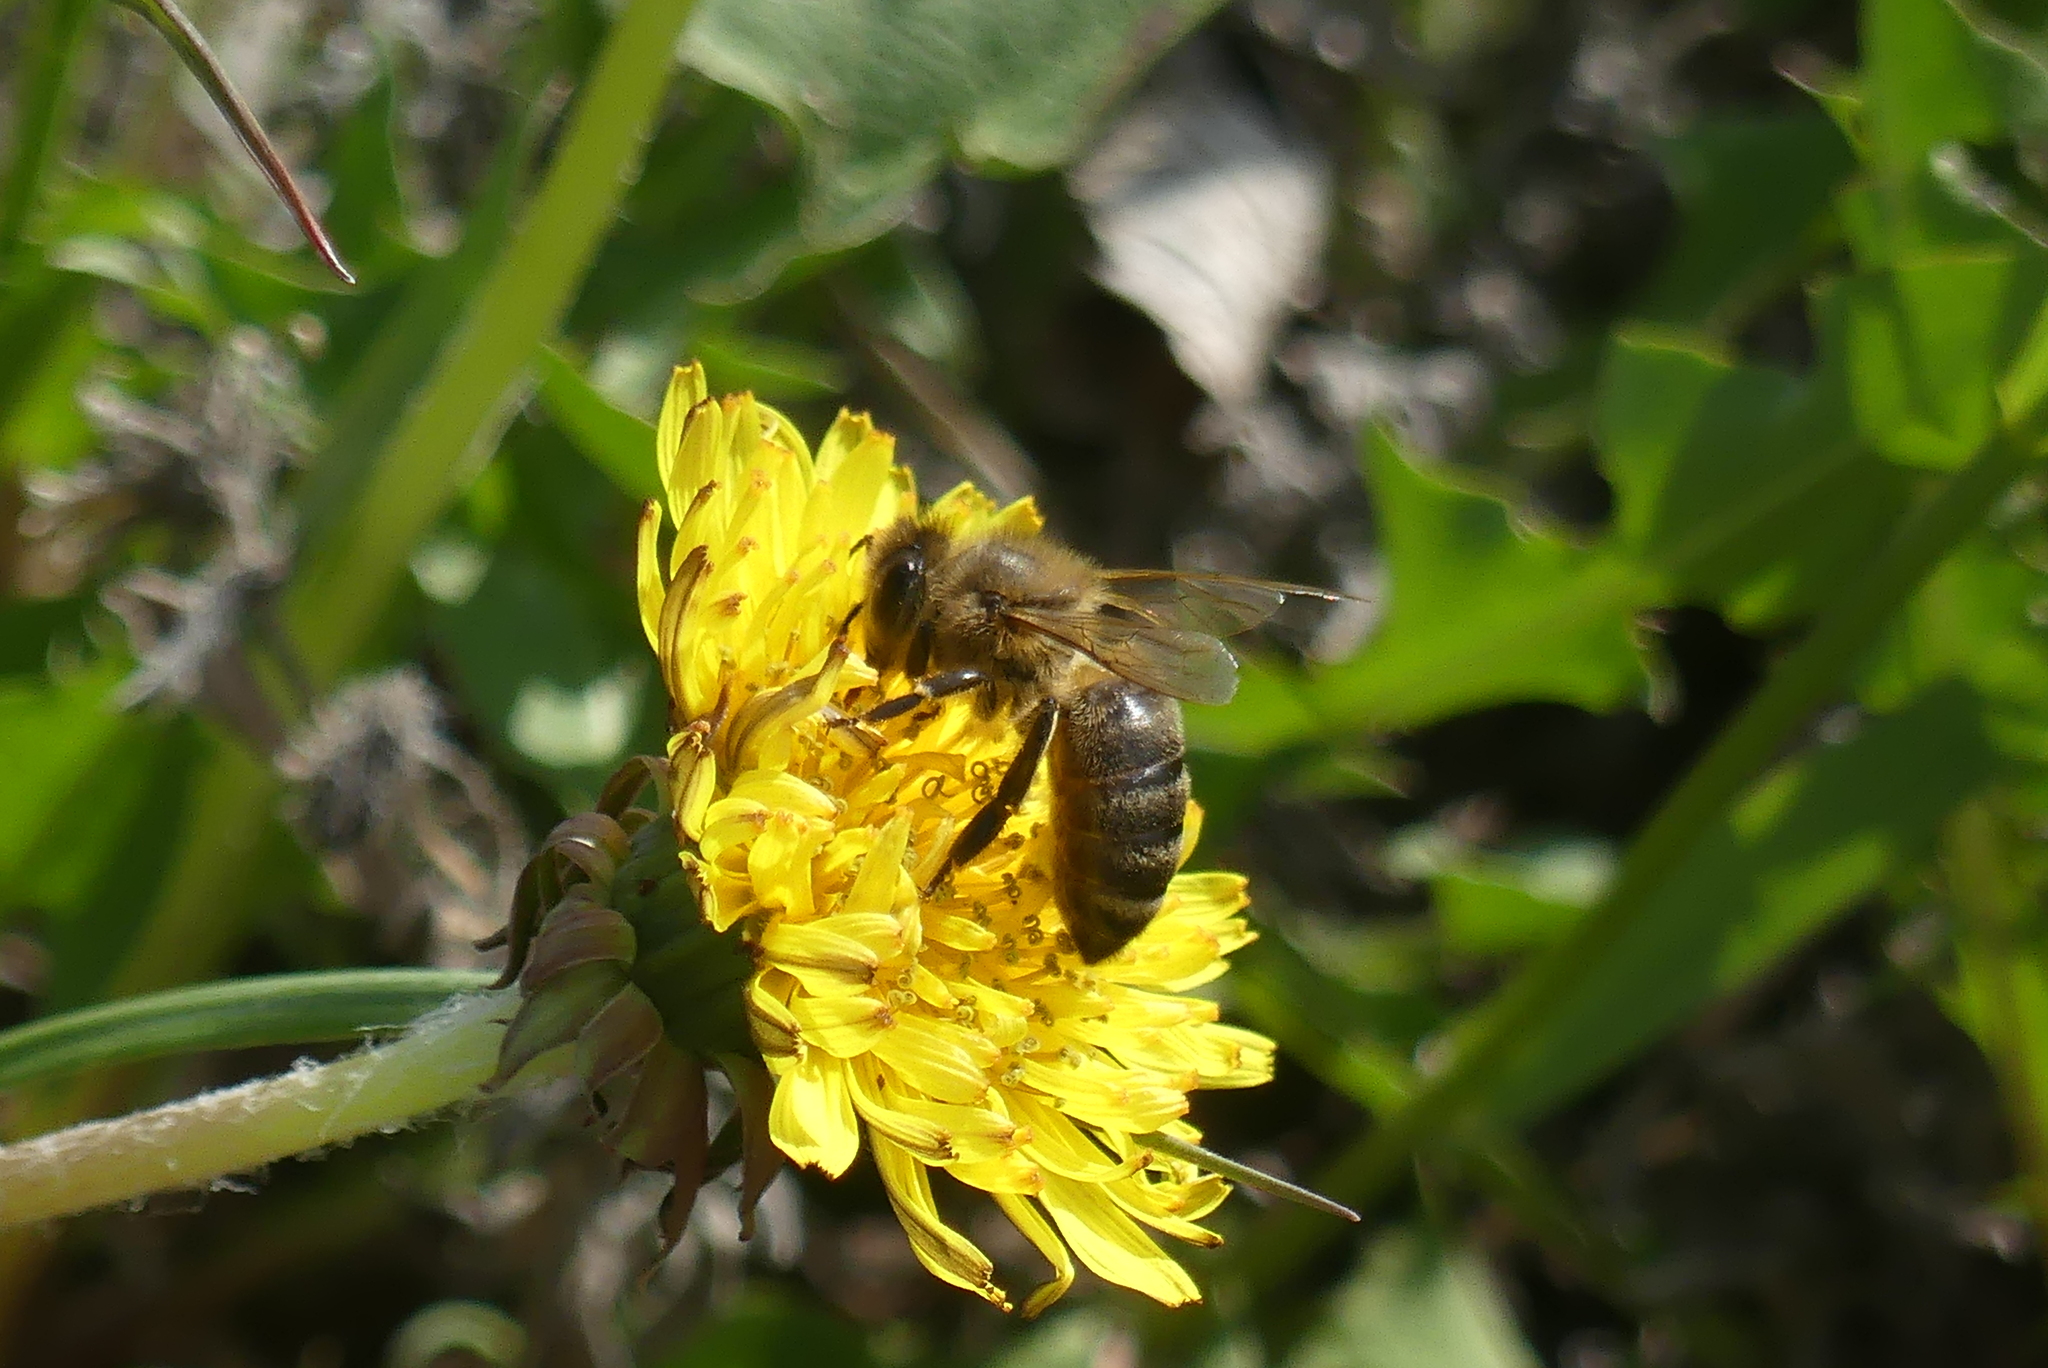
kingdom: Animalia
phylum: Arthropoda
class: Insecta
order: Hymenoptera
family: Apidae
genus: Apis
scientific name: Apis mellifera
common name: Honey bee
